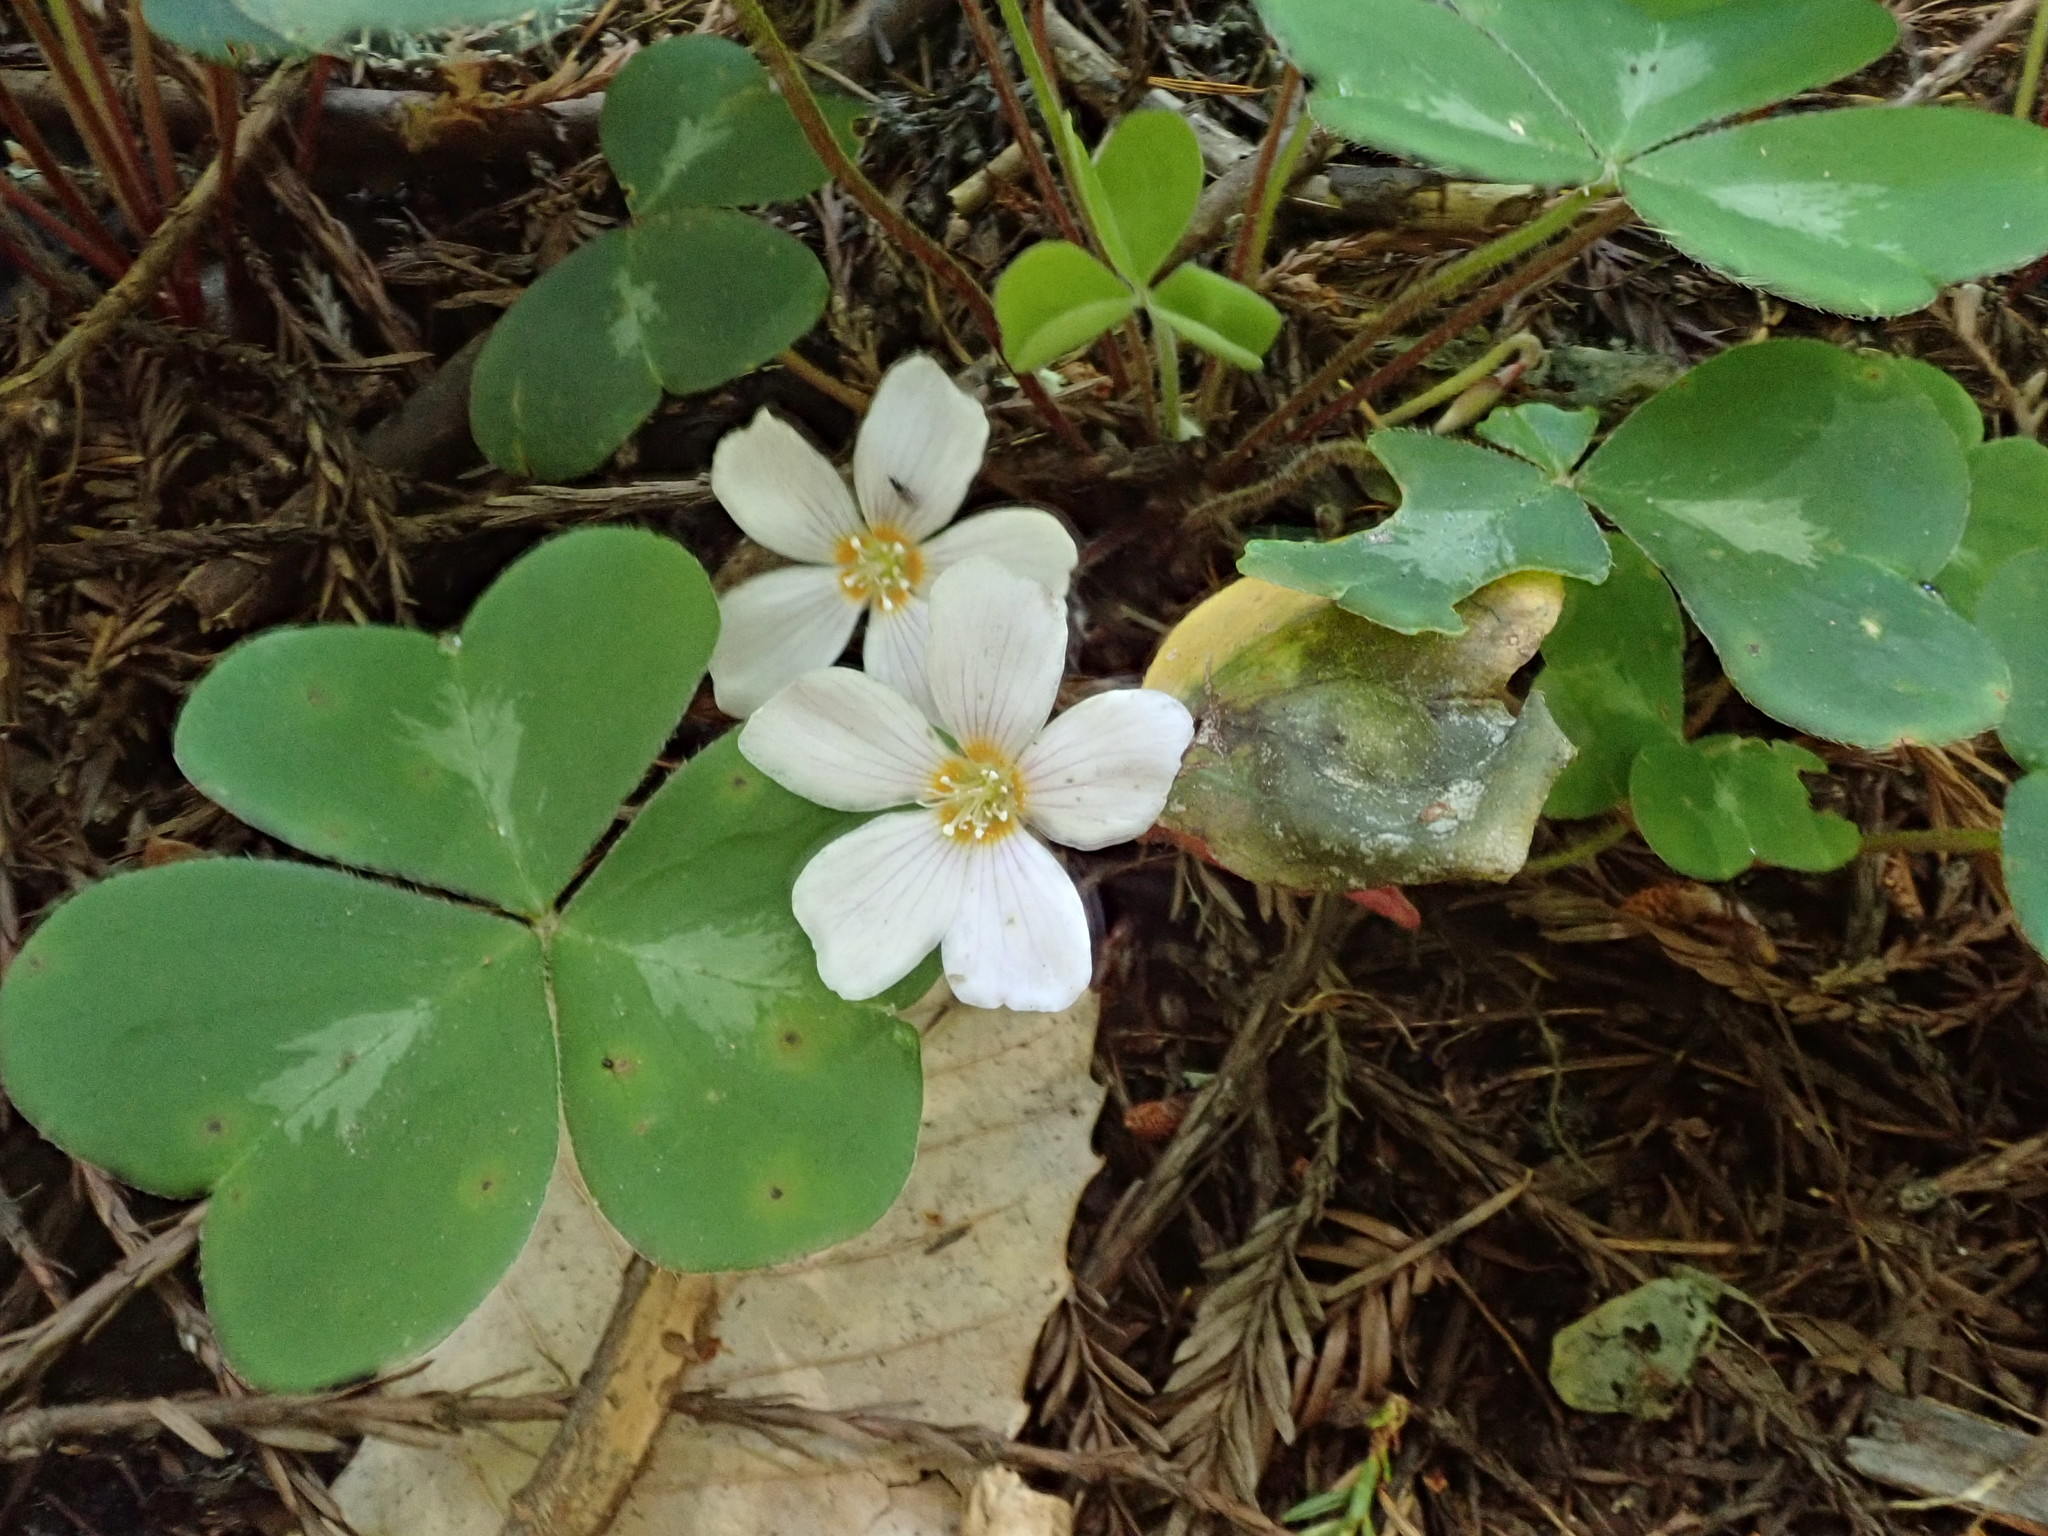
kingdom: Plantae
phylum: Tracheophyta
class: Magnoliopsida
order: Oxalidales
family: Oxalidaceae
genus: Oxalis
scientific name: Oxalis oregana
